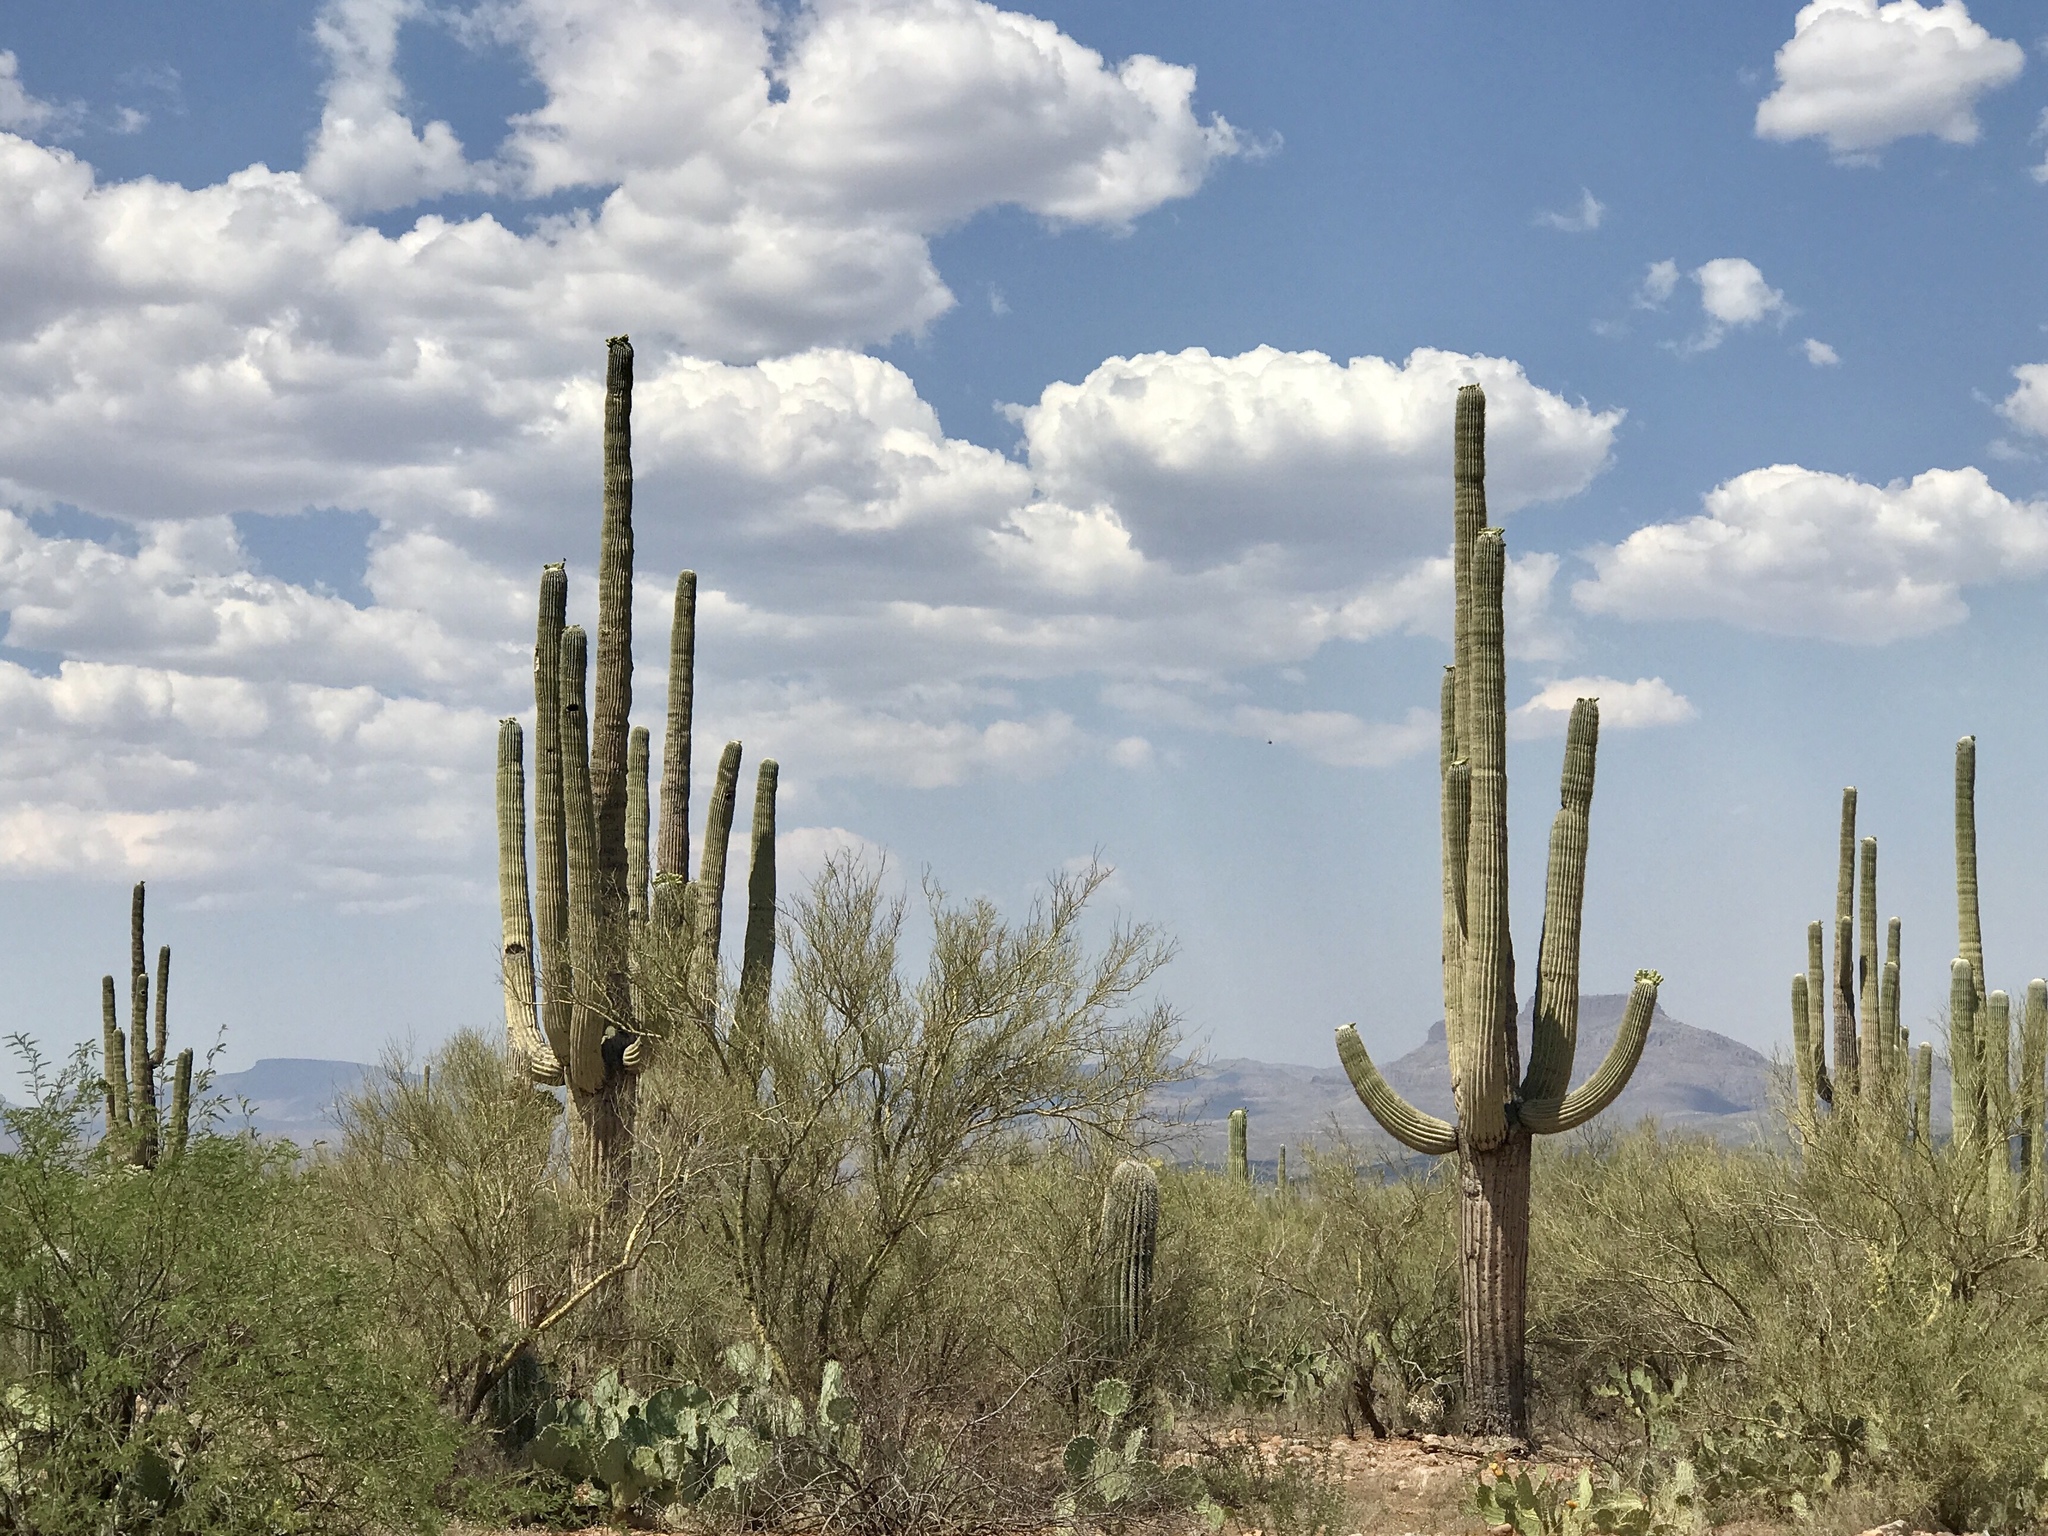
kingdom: Plantae
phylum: Tracheophyta
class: Magnoliopsida
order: Caryophyllales
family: Cactaceae
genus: Carnegiea
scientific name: Carnegiea gigantea
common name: Saguaro
